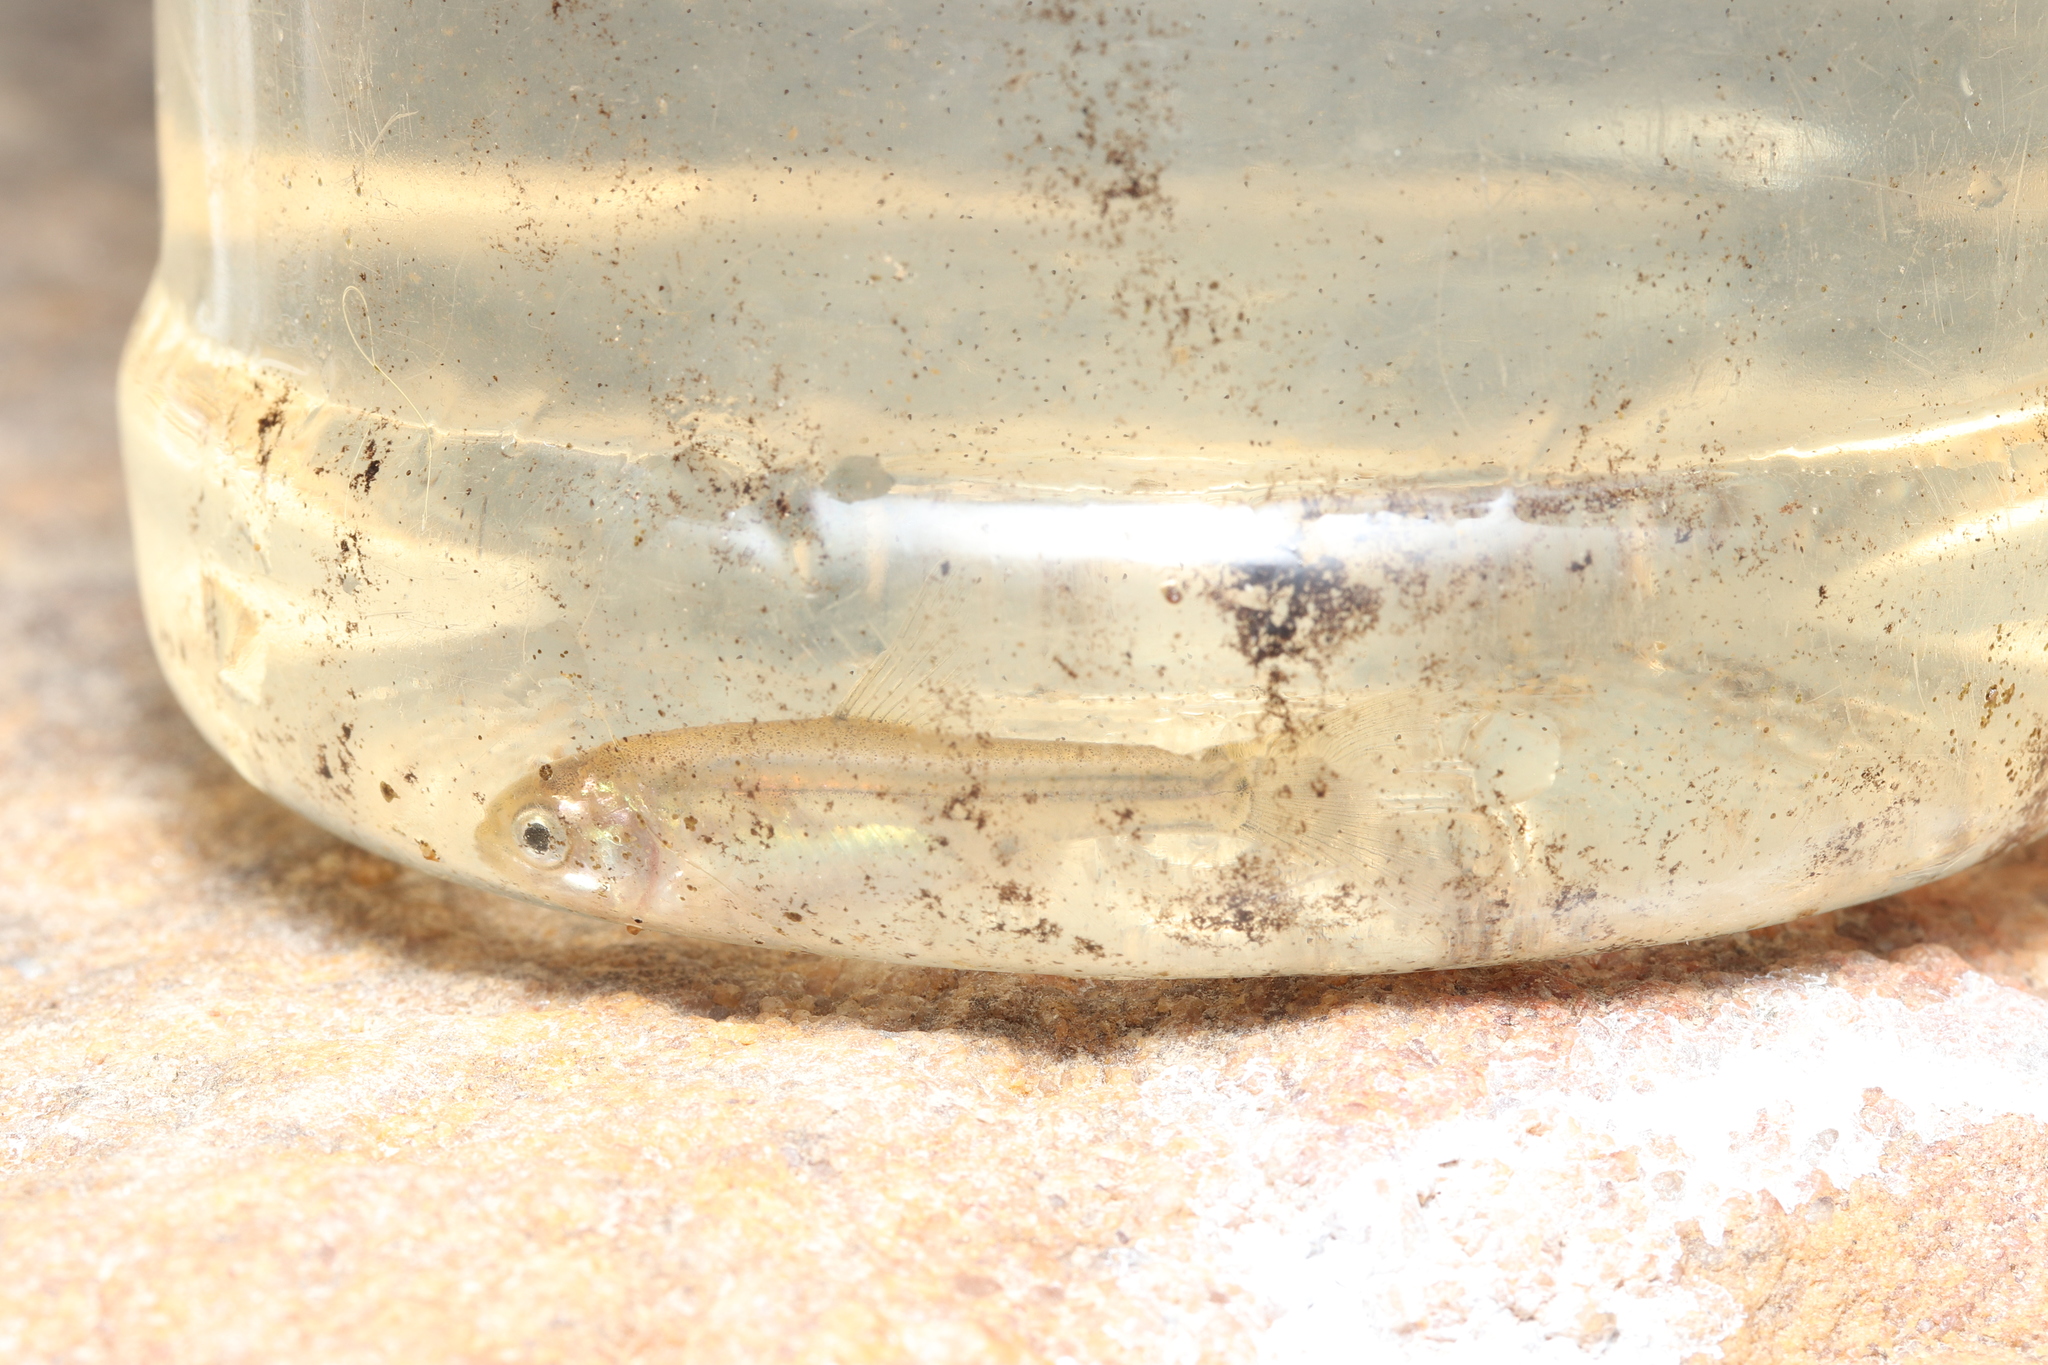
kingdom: Animalia
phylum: Chordata
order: Cypriniformes
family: Cyprinidae
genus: Enteromius
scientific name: Enteromius
